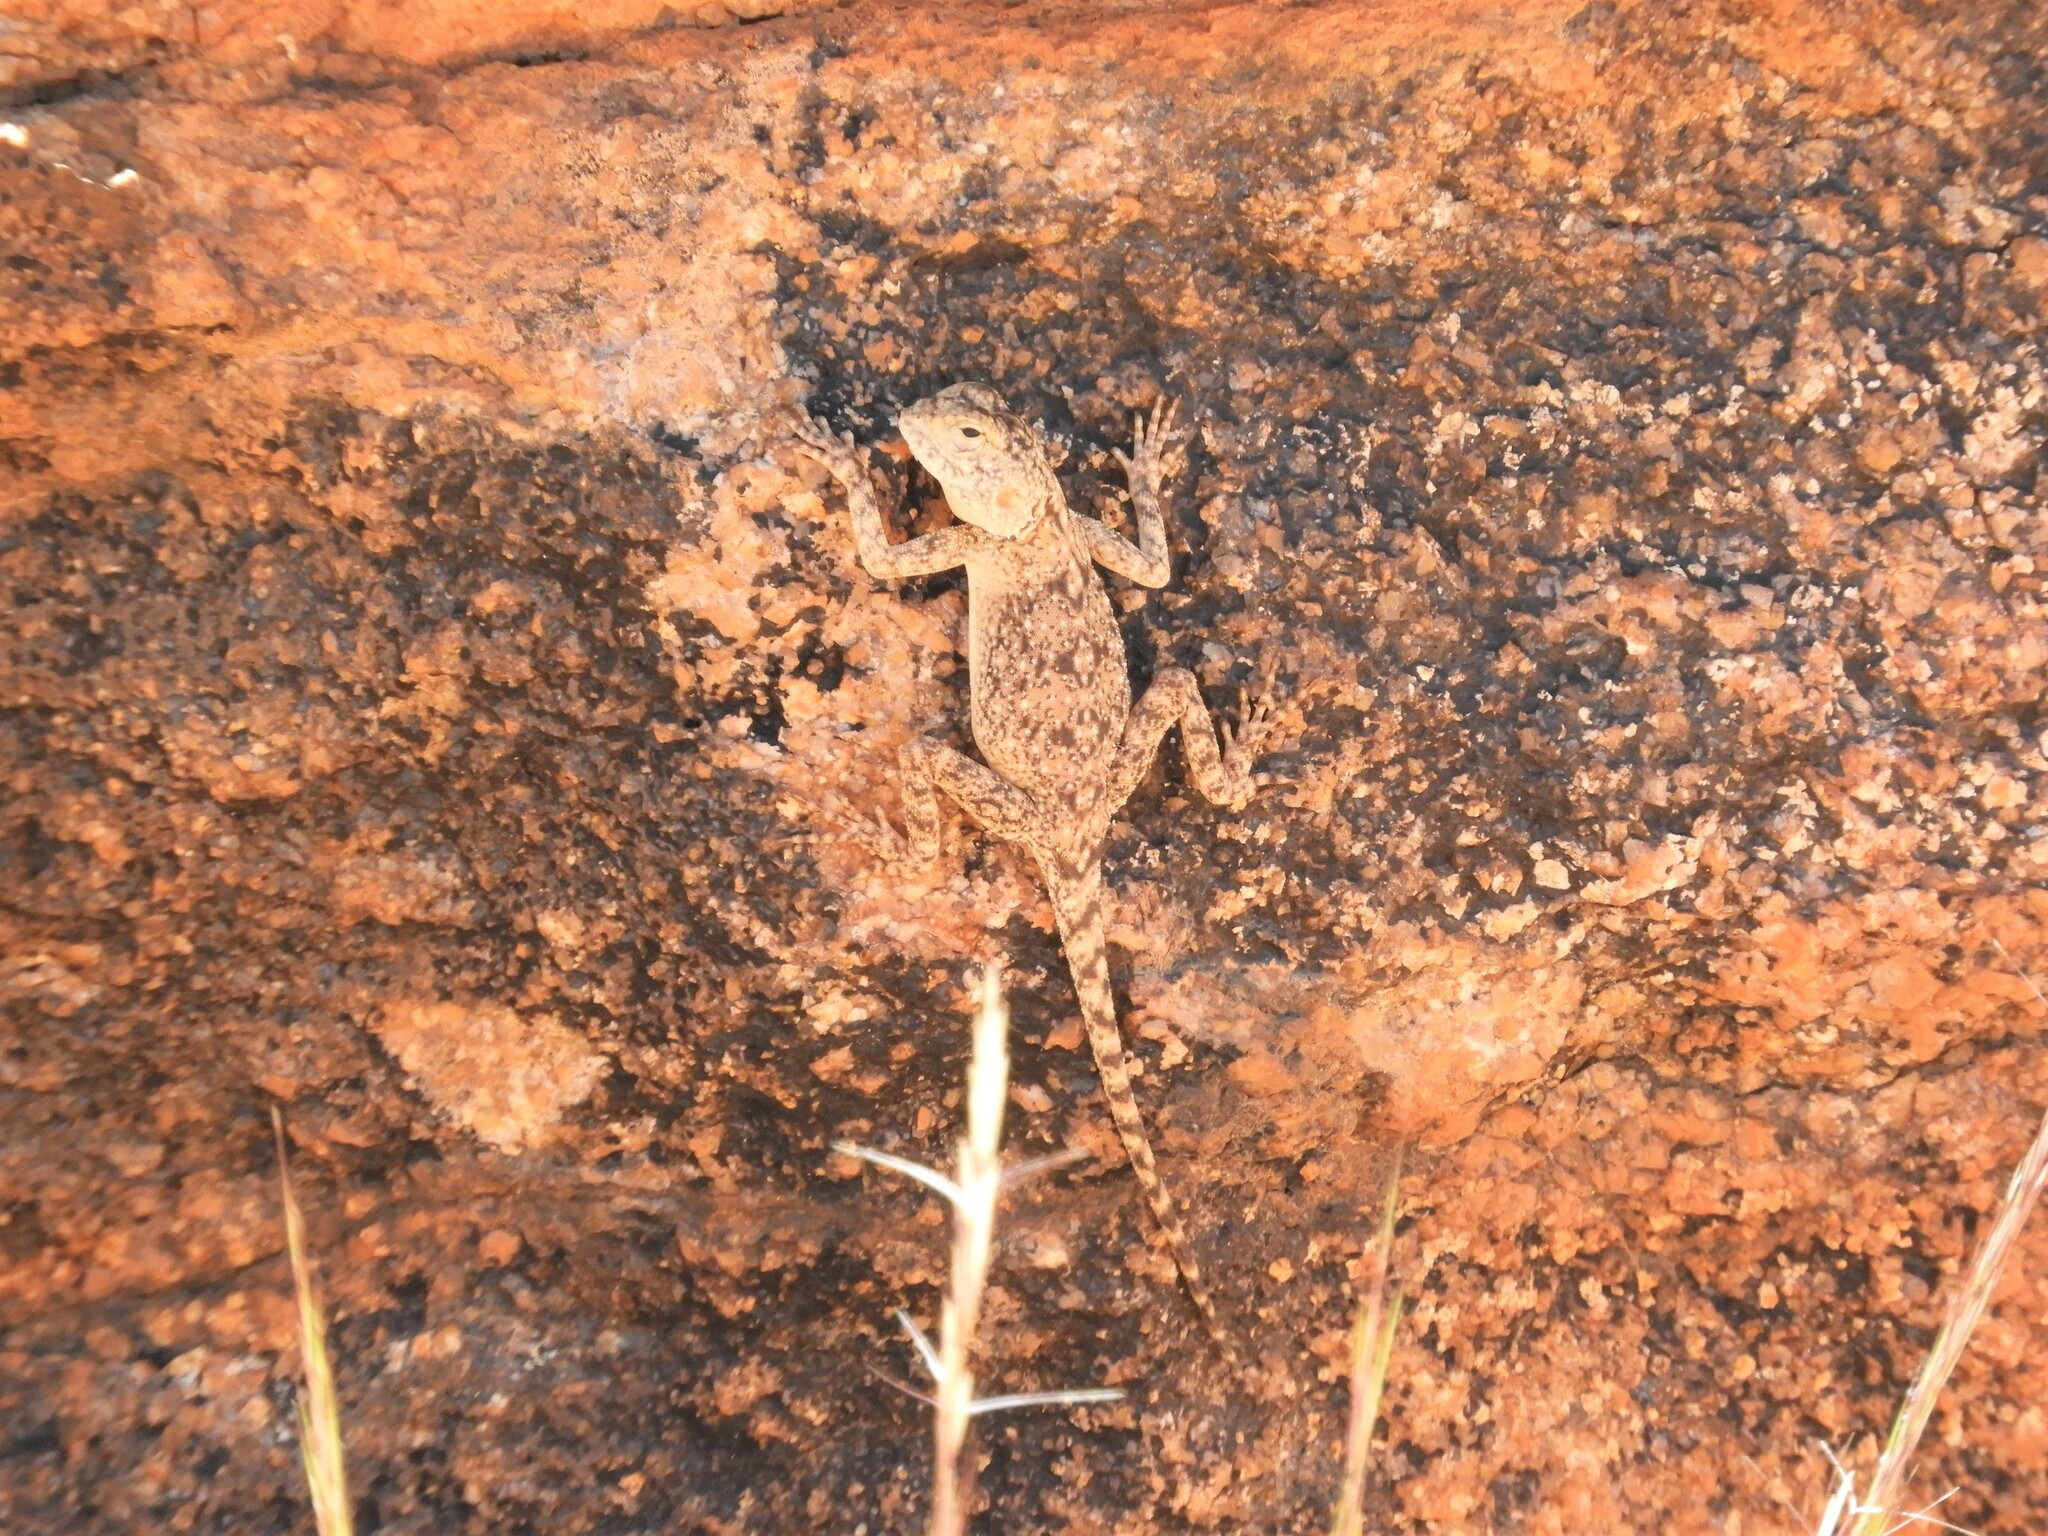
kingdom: Animalia
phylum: Chordata
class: Squamata
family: Agamidae
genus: Agama
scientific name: Agama atra
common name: Southern african rock agama
